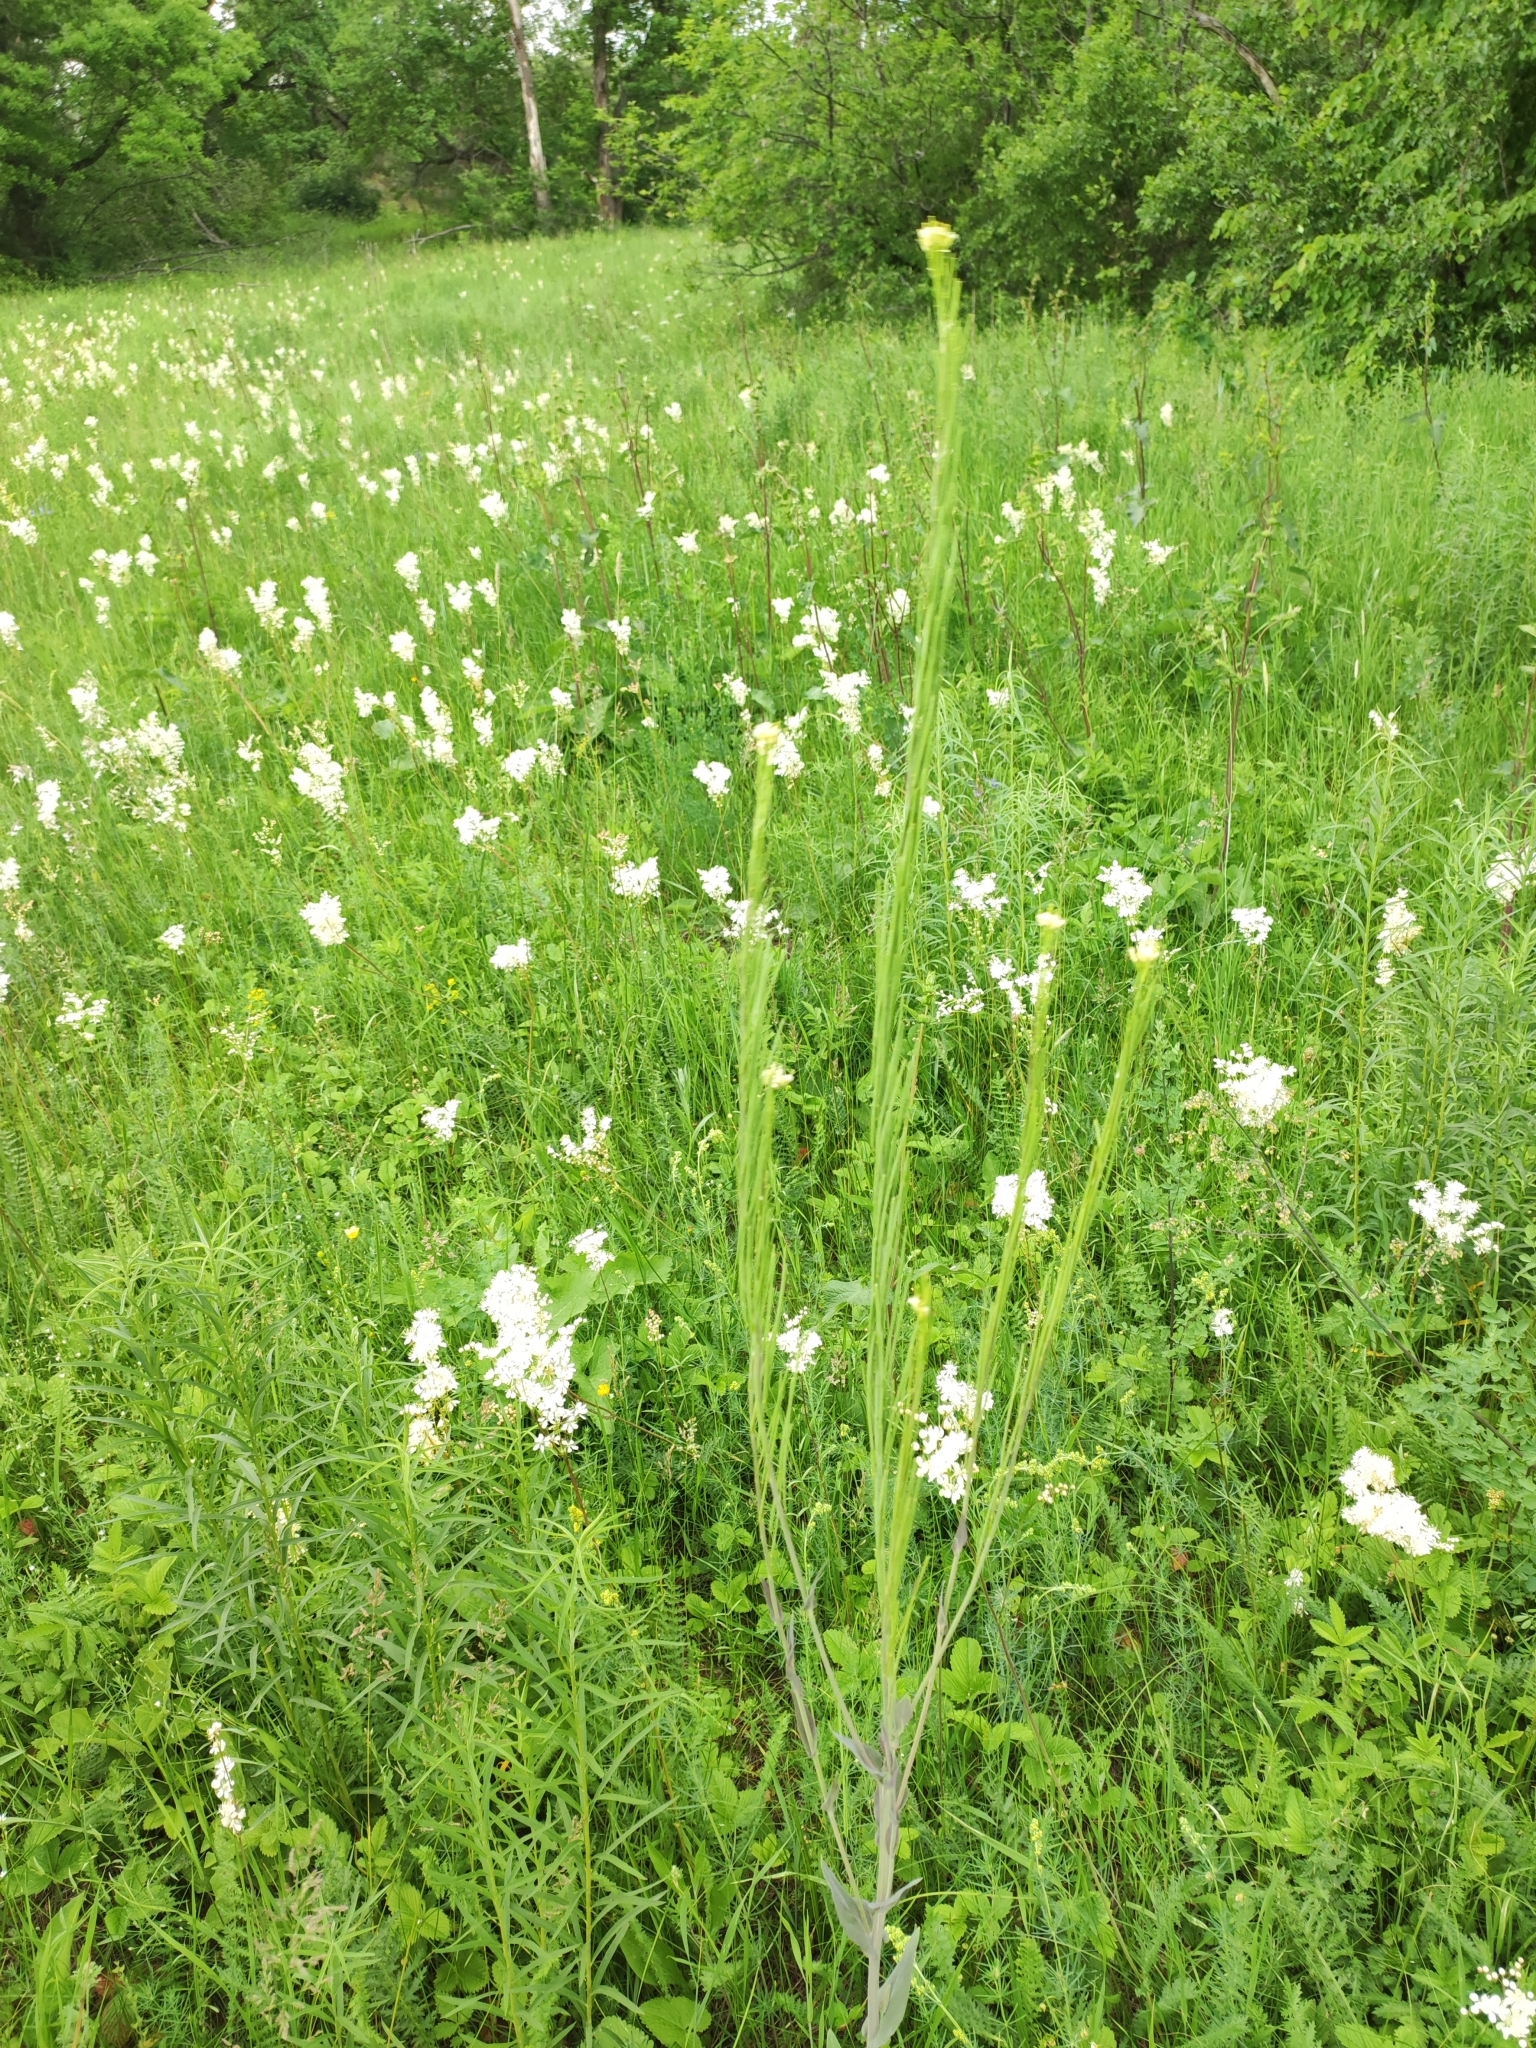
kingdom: Plantae
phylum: Tracheophyta
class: Magnoliopsida
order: Brassicales
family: Brassicaceae
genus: Turritis
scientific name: Turritis glabra
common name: Tower rockcress
